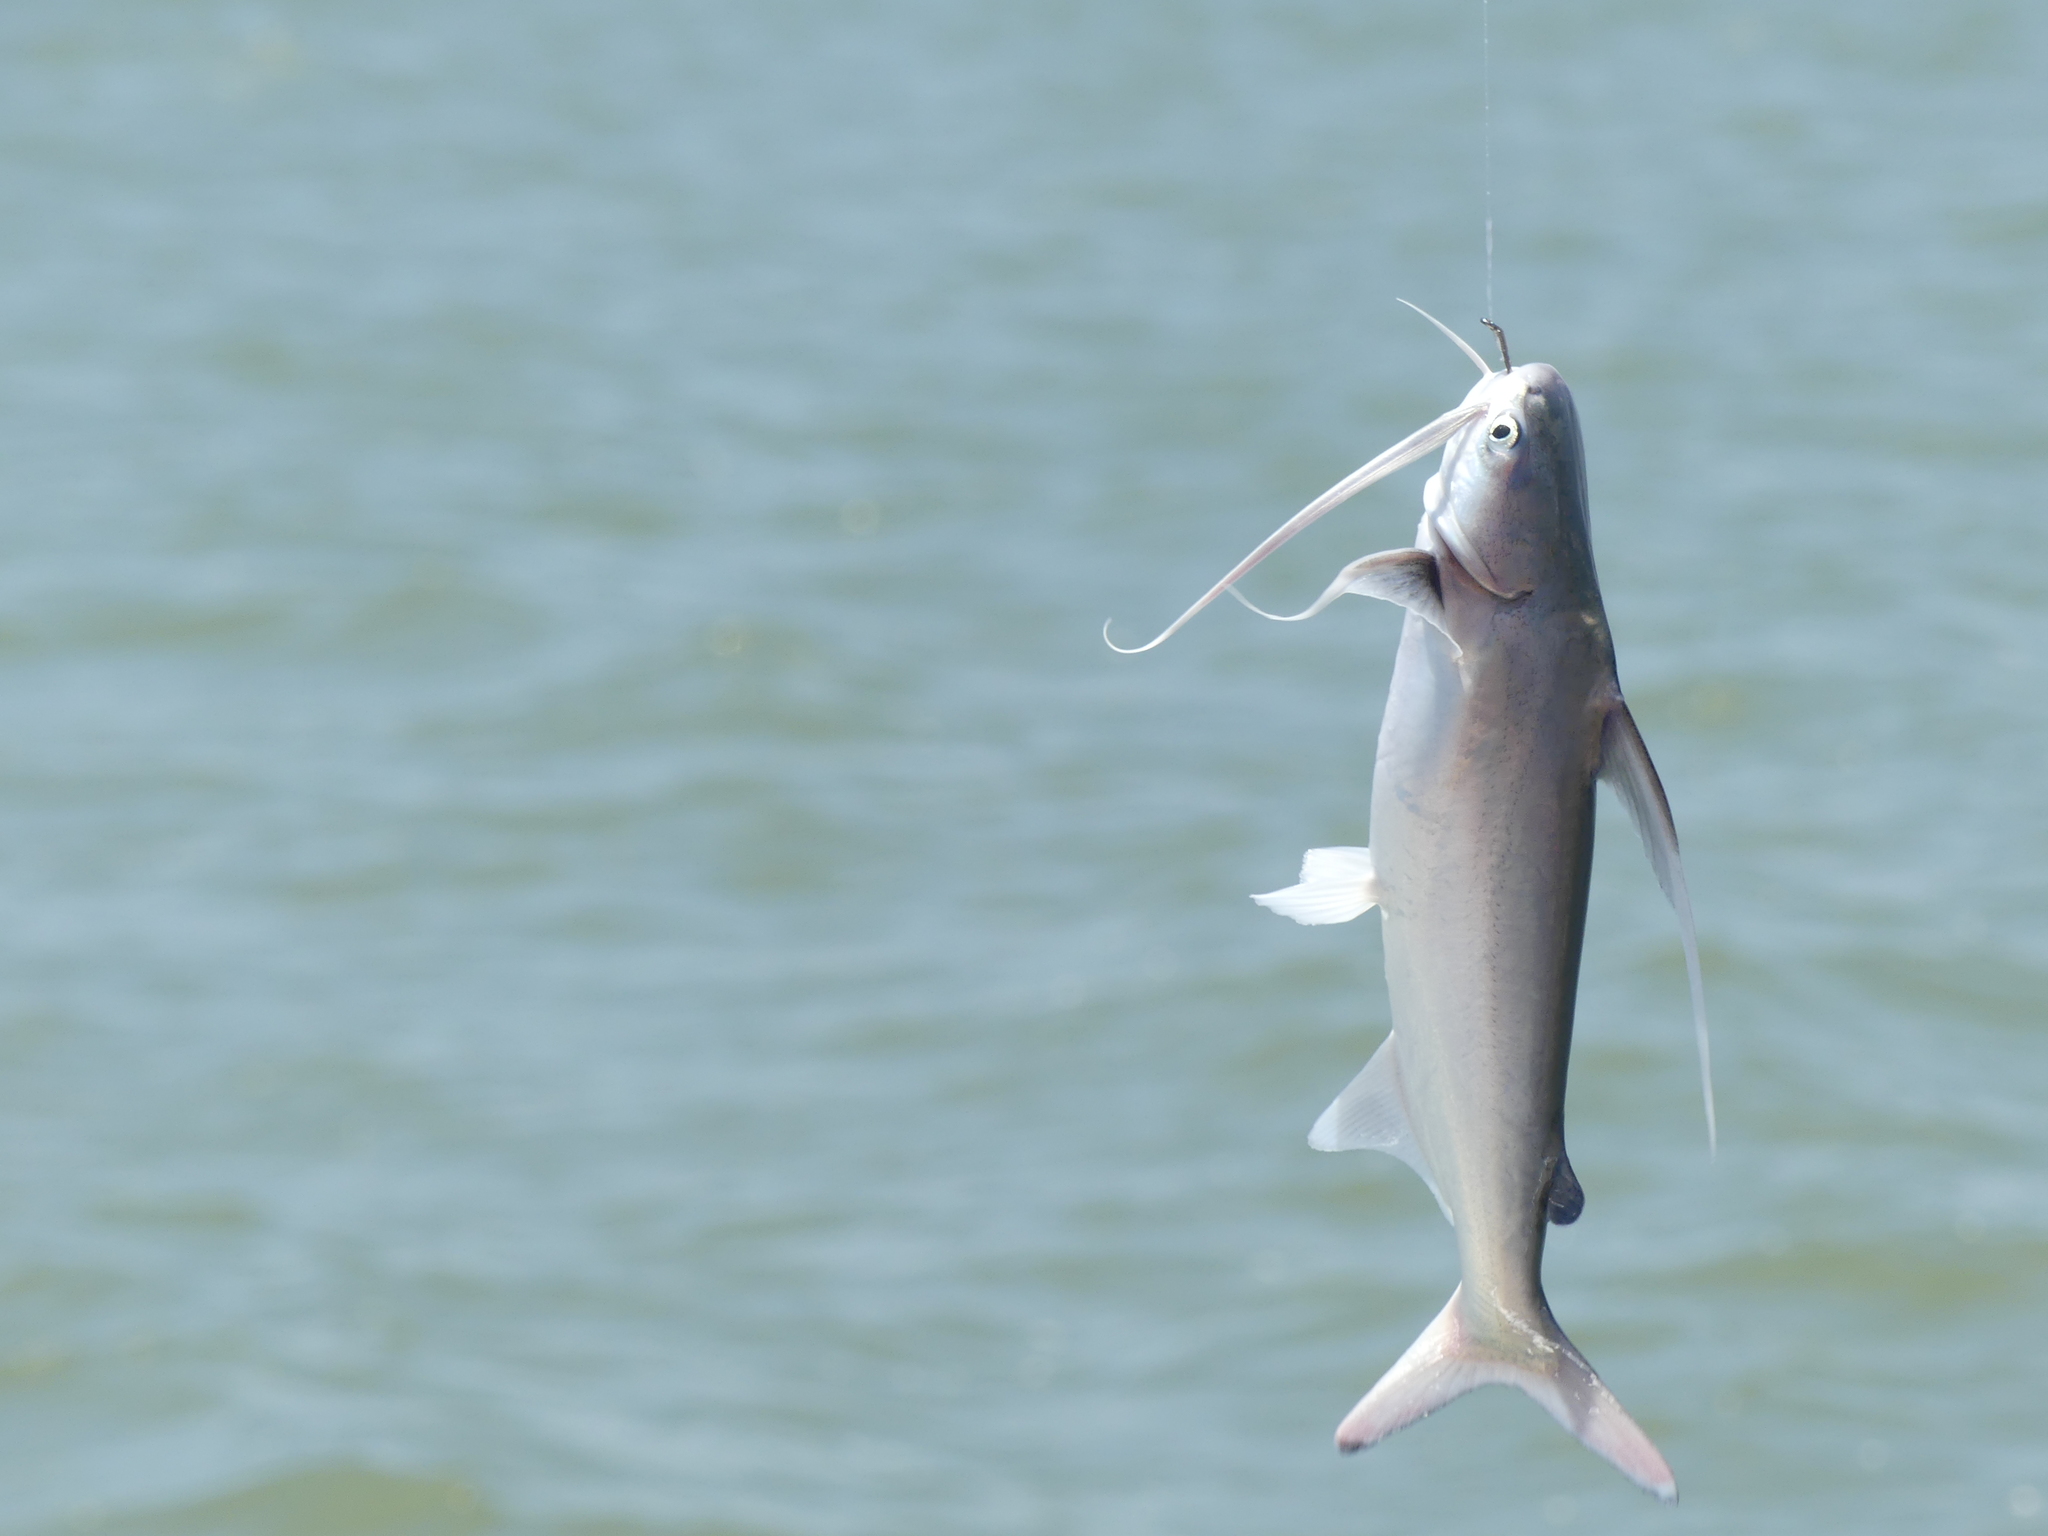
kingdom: Animalia
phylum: Chordata
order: Siluriformes
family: Ariidae
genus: Bagre
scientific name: Bagre marinus
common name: Gafftopsail sea catfish
